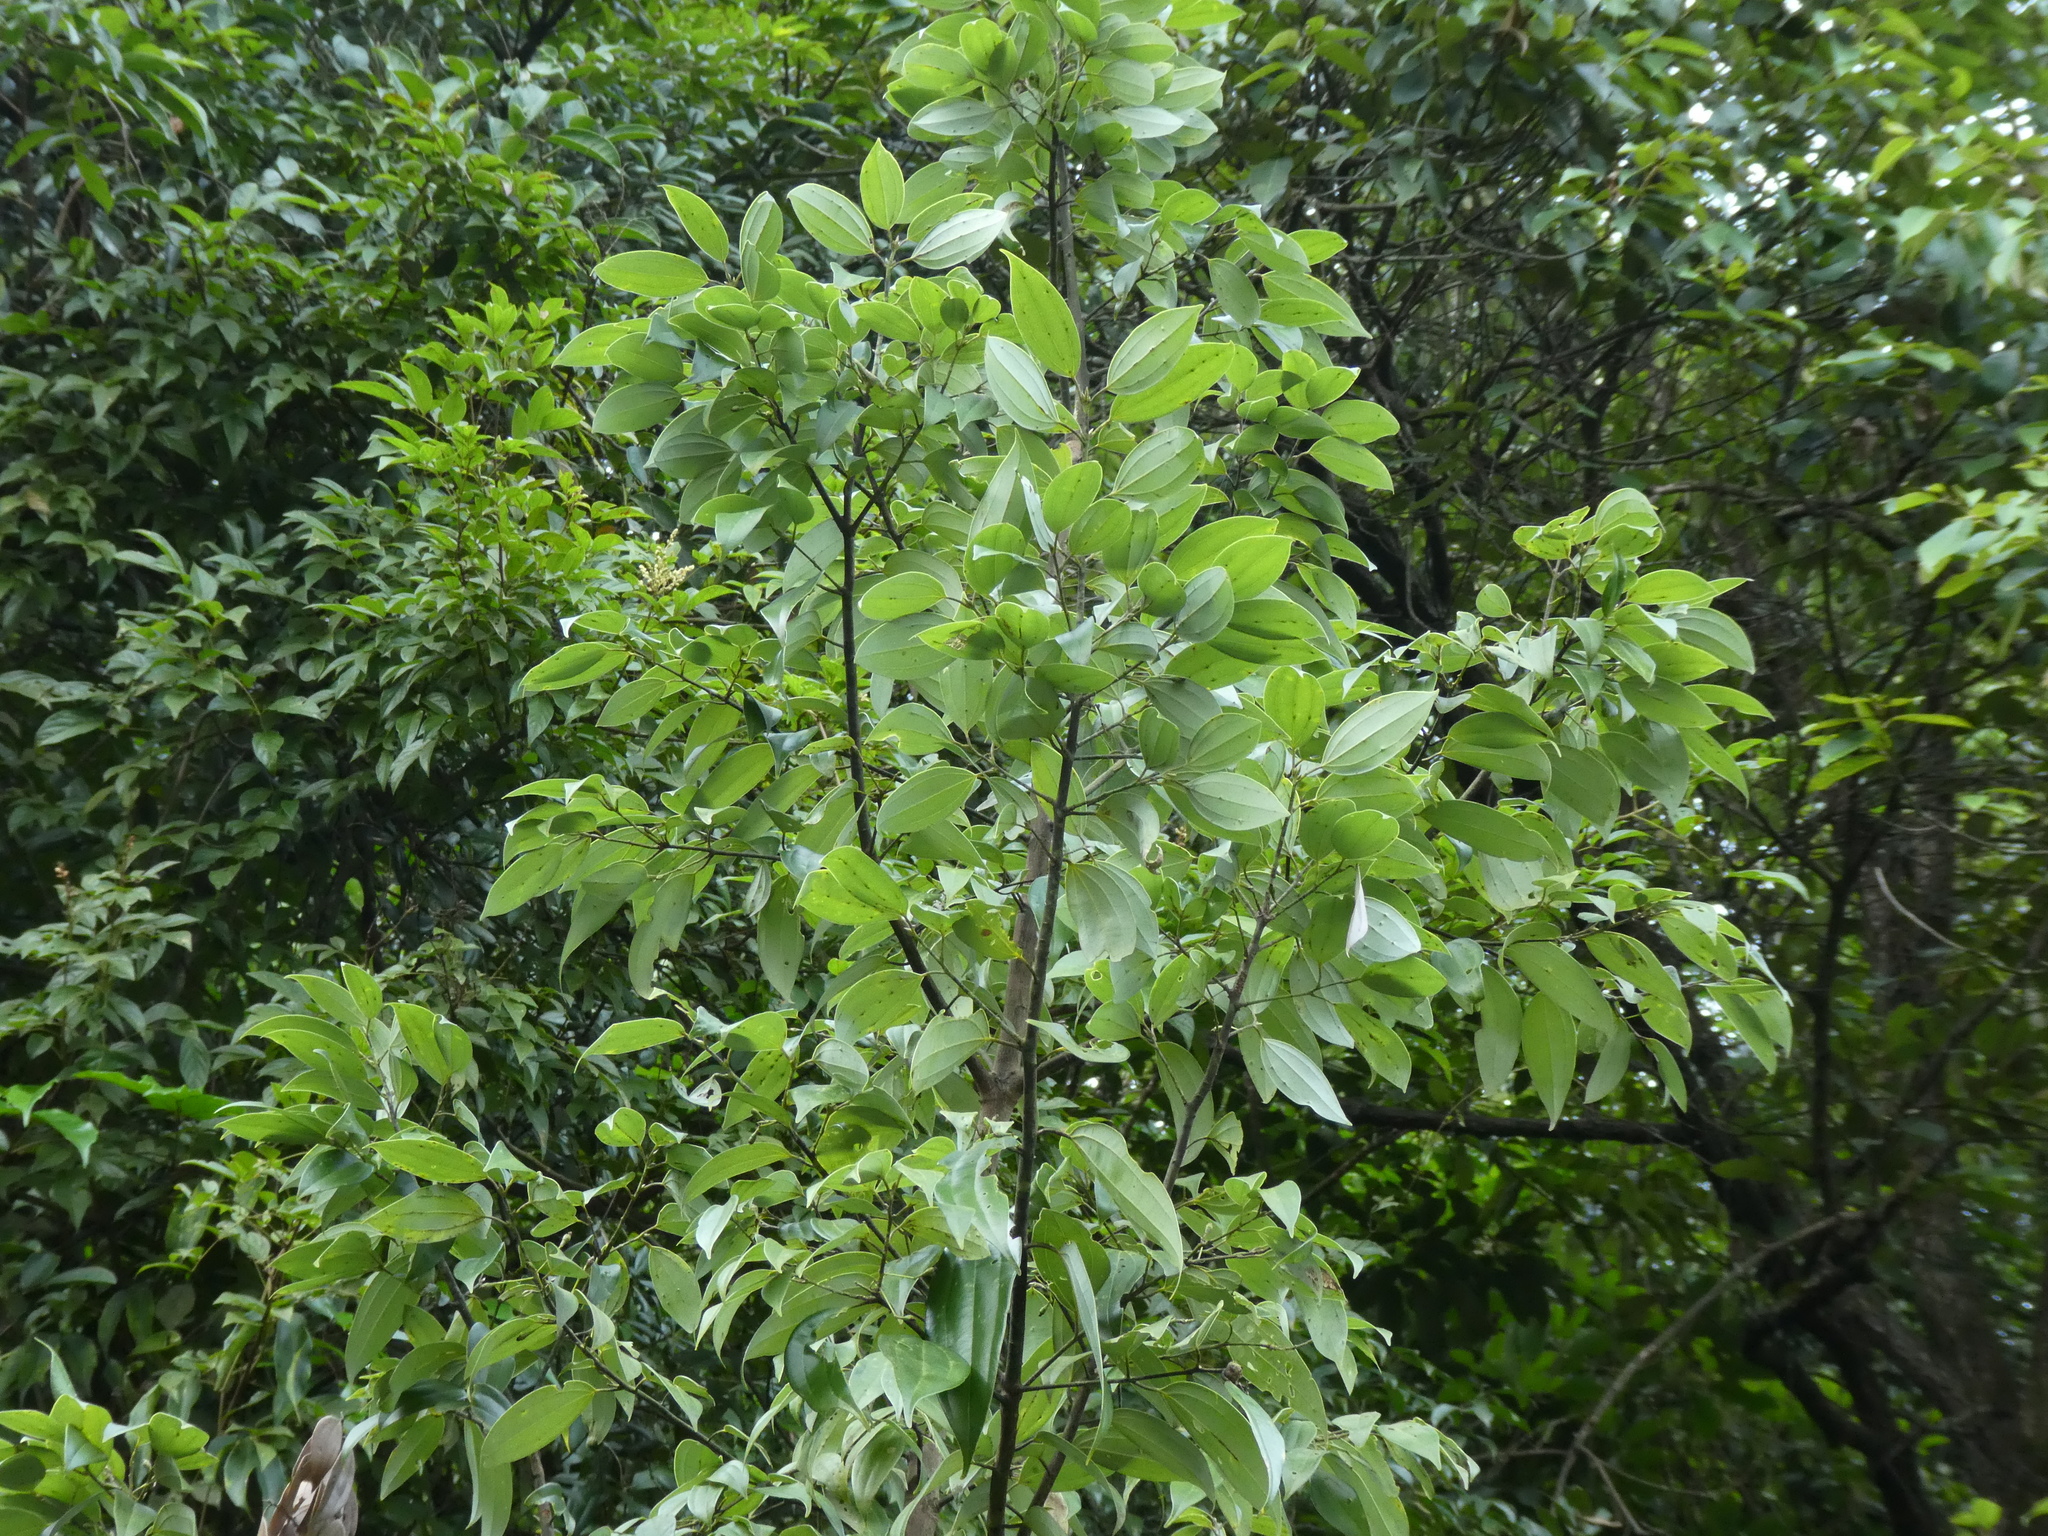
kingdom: Plantae
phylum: Tracheophyta
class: Magnoliopsida
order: Laurales
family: Lauraceae
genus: Cinnamomum
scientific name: Cinnamomum
